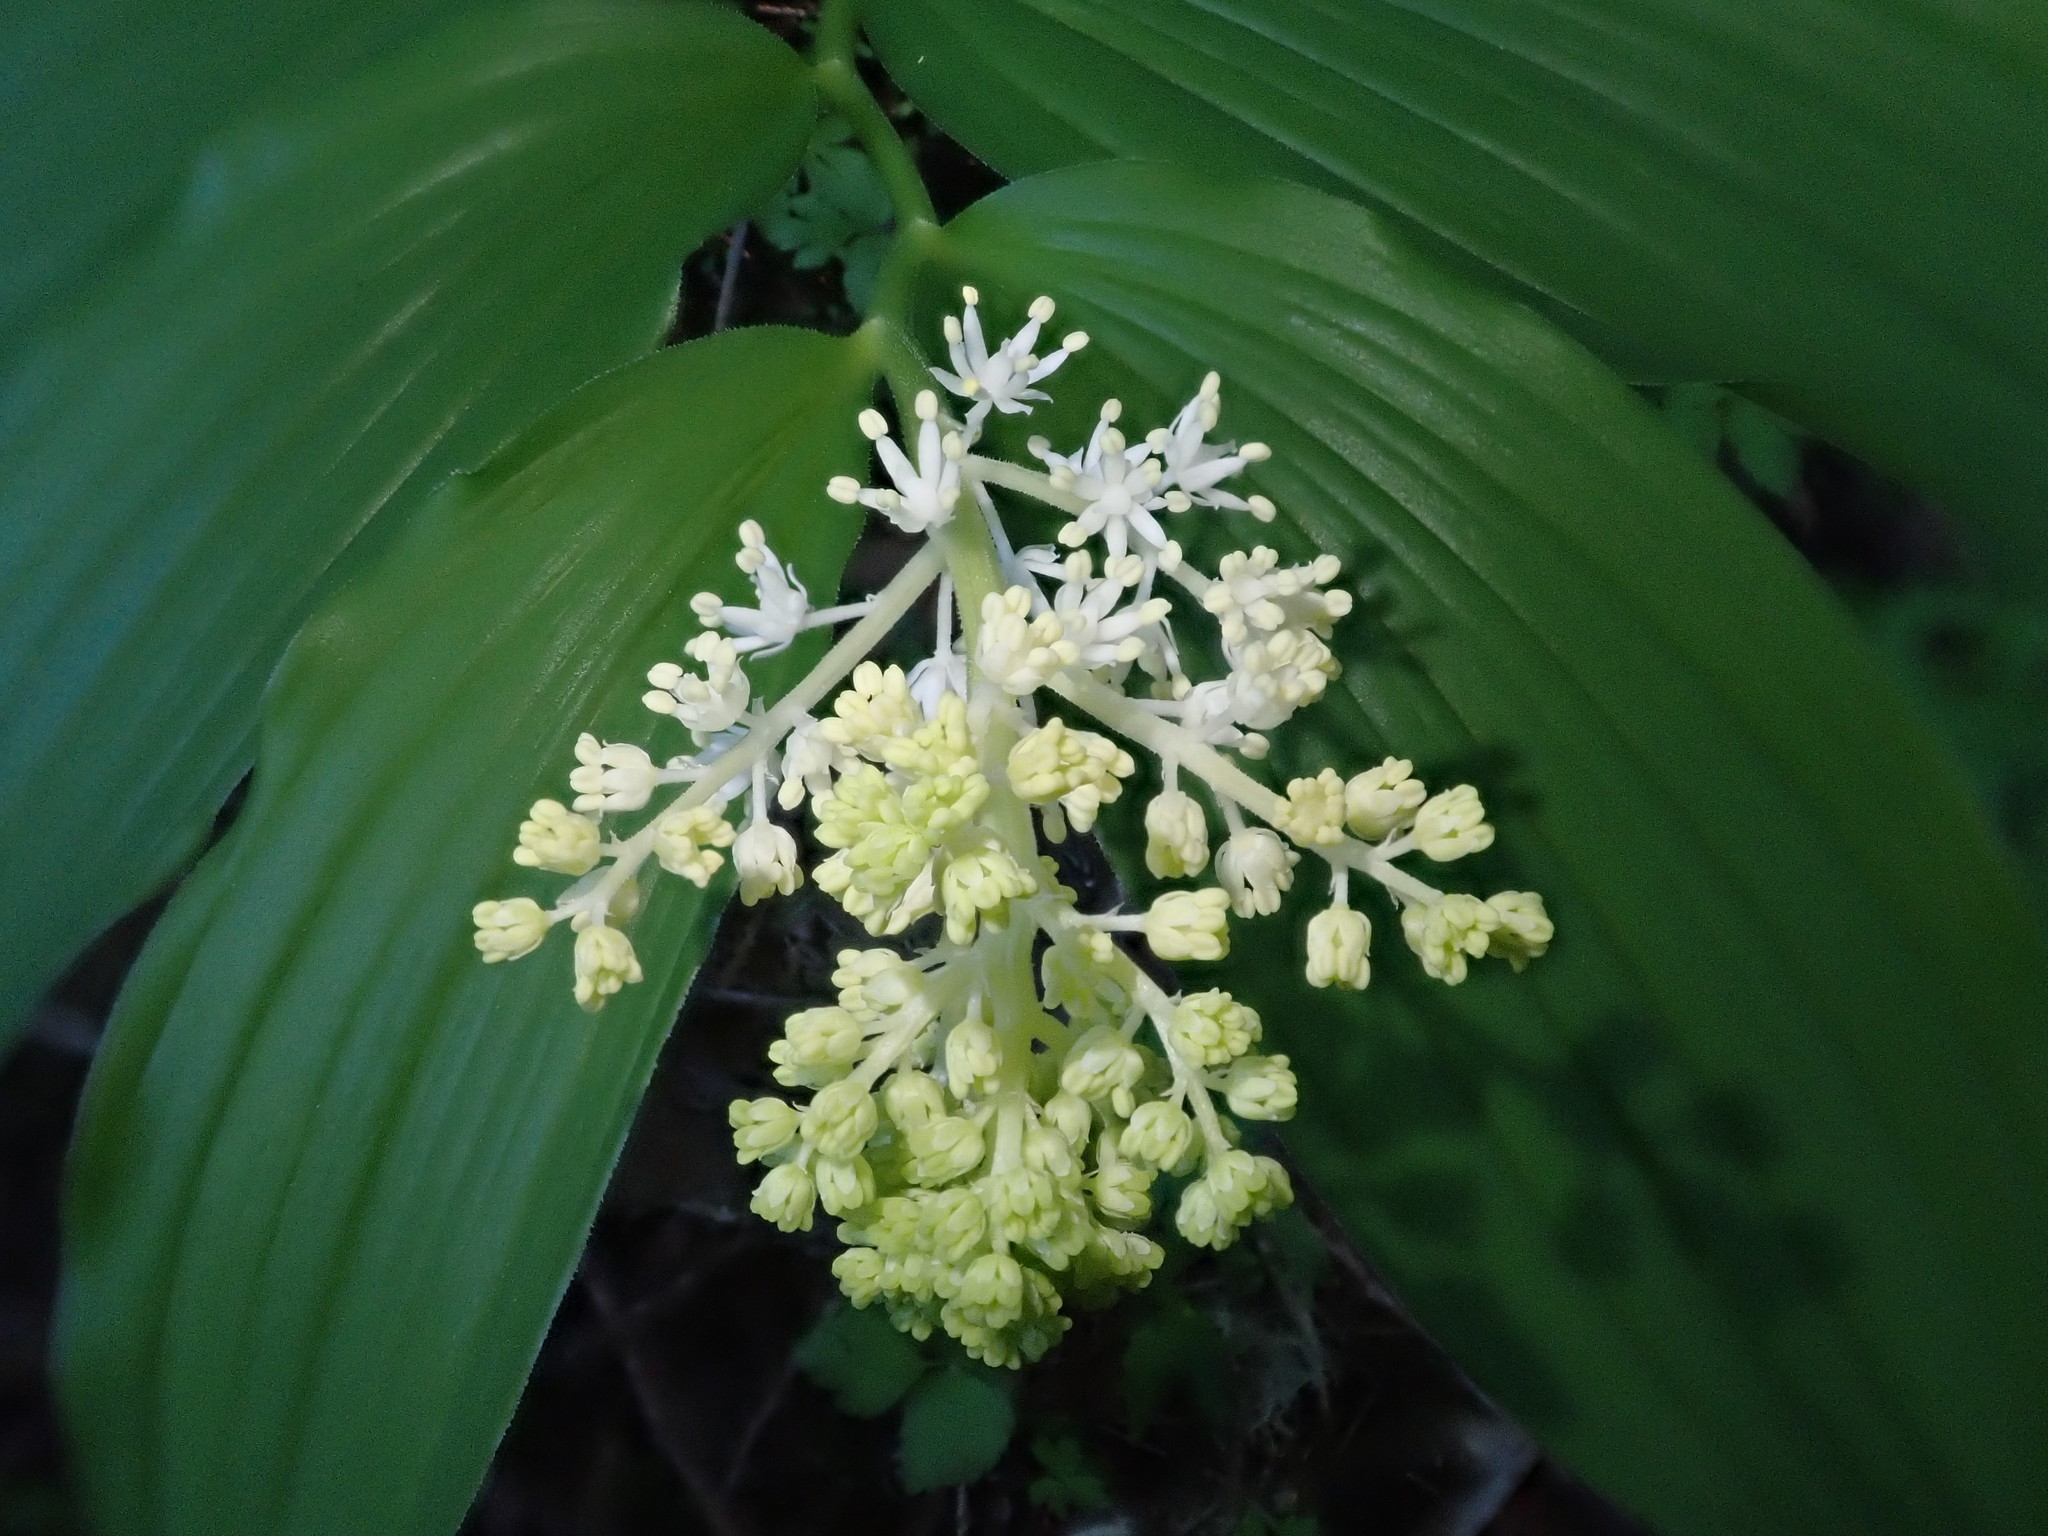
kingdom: Plantae
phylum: Tracheophyta
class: Liliopsida
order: Asparagales
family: Asparagaceae
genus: Maianthemum
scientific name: Maianthemum racemosum
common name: False spikenard
